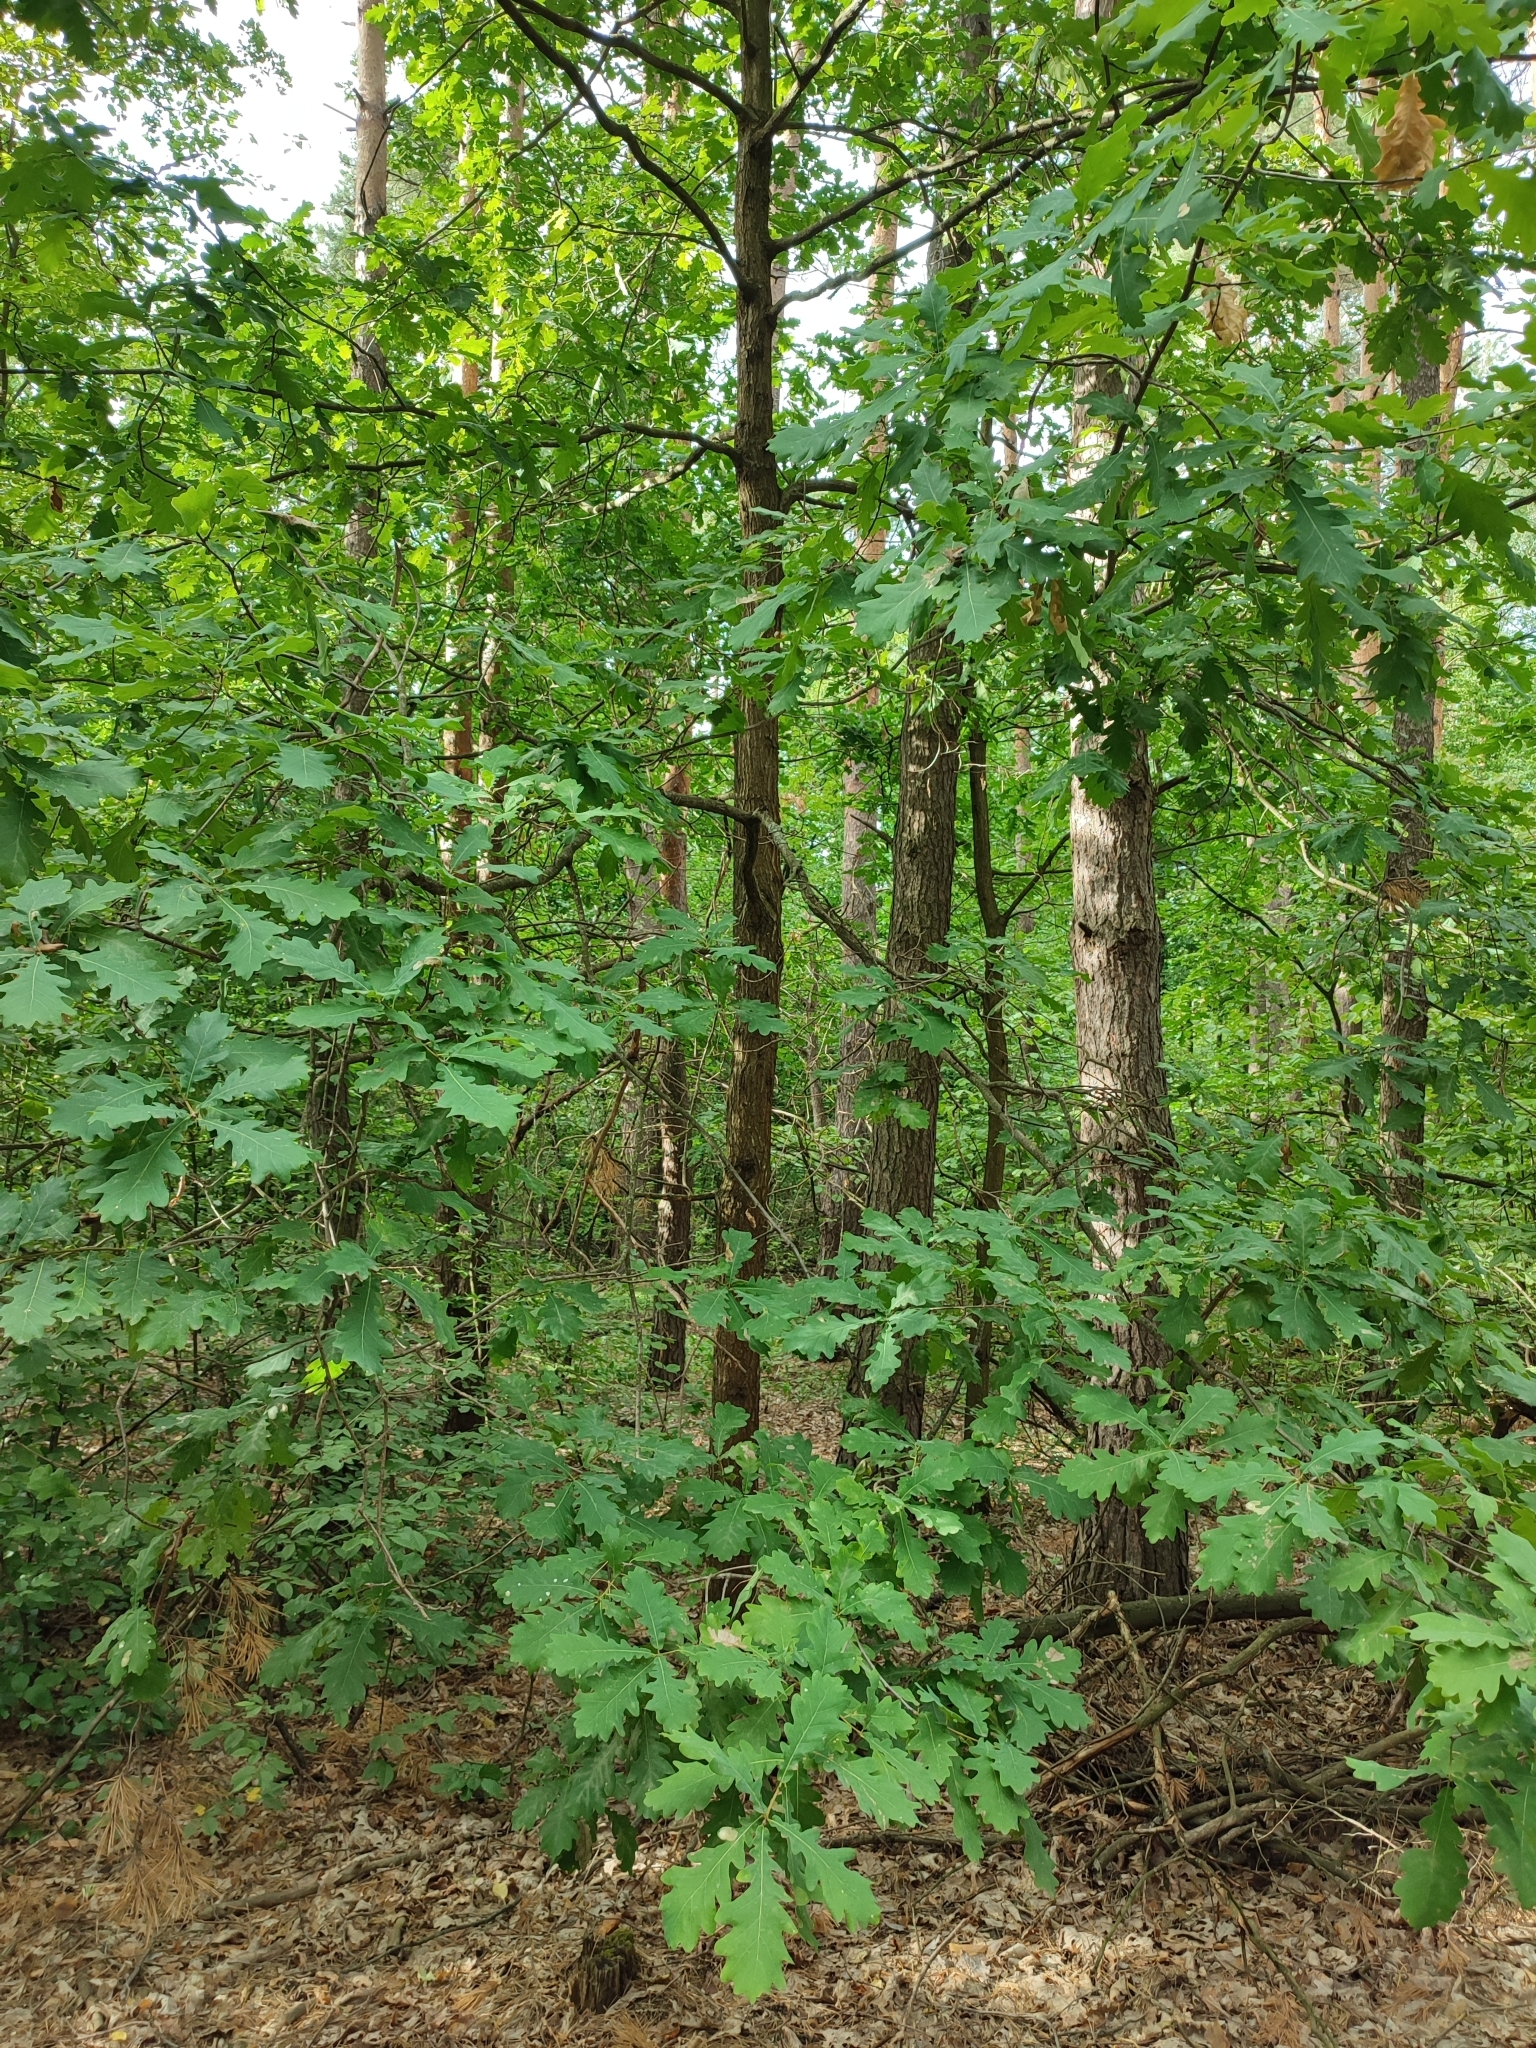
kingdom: Plantae
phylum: Tracheophyta
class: Magnoliopsida
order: Fagales
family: Fagaceae
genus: Quercus
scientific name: Quercus robur
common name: Pedunculate oak
